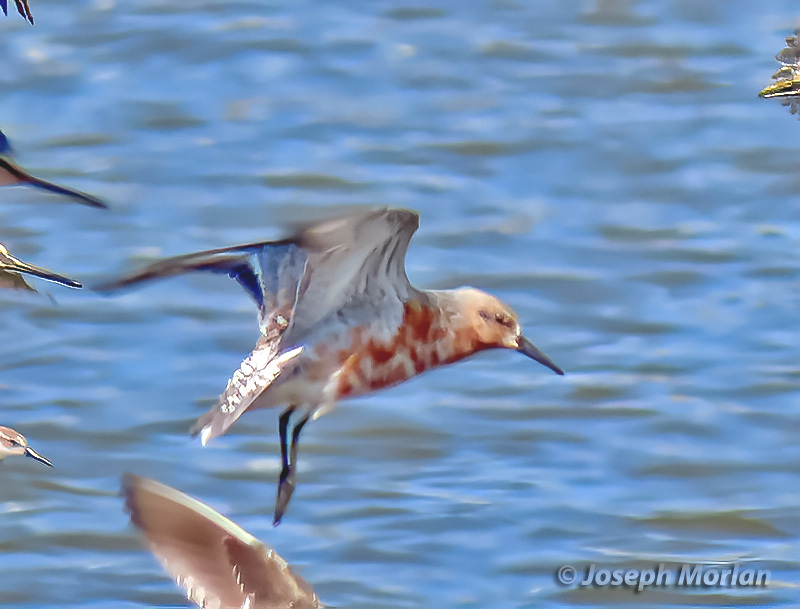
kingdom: Animalia
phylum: Chordata
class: Aves
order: Charadriiformes
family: Scolopacidae
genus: Calidris
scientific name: Calidris canutus
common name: Red knot
